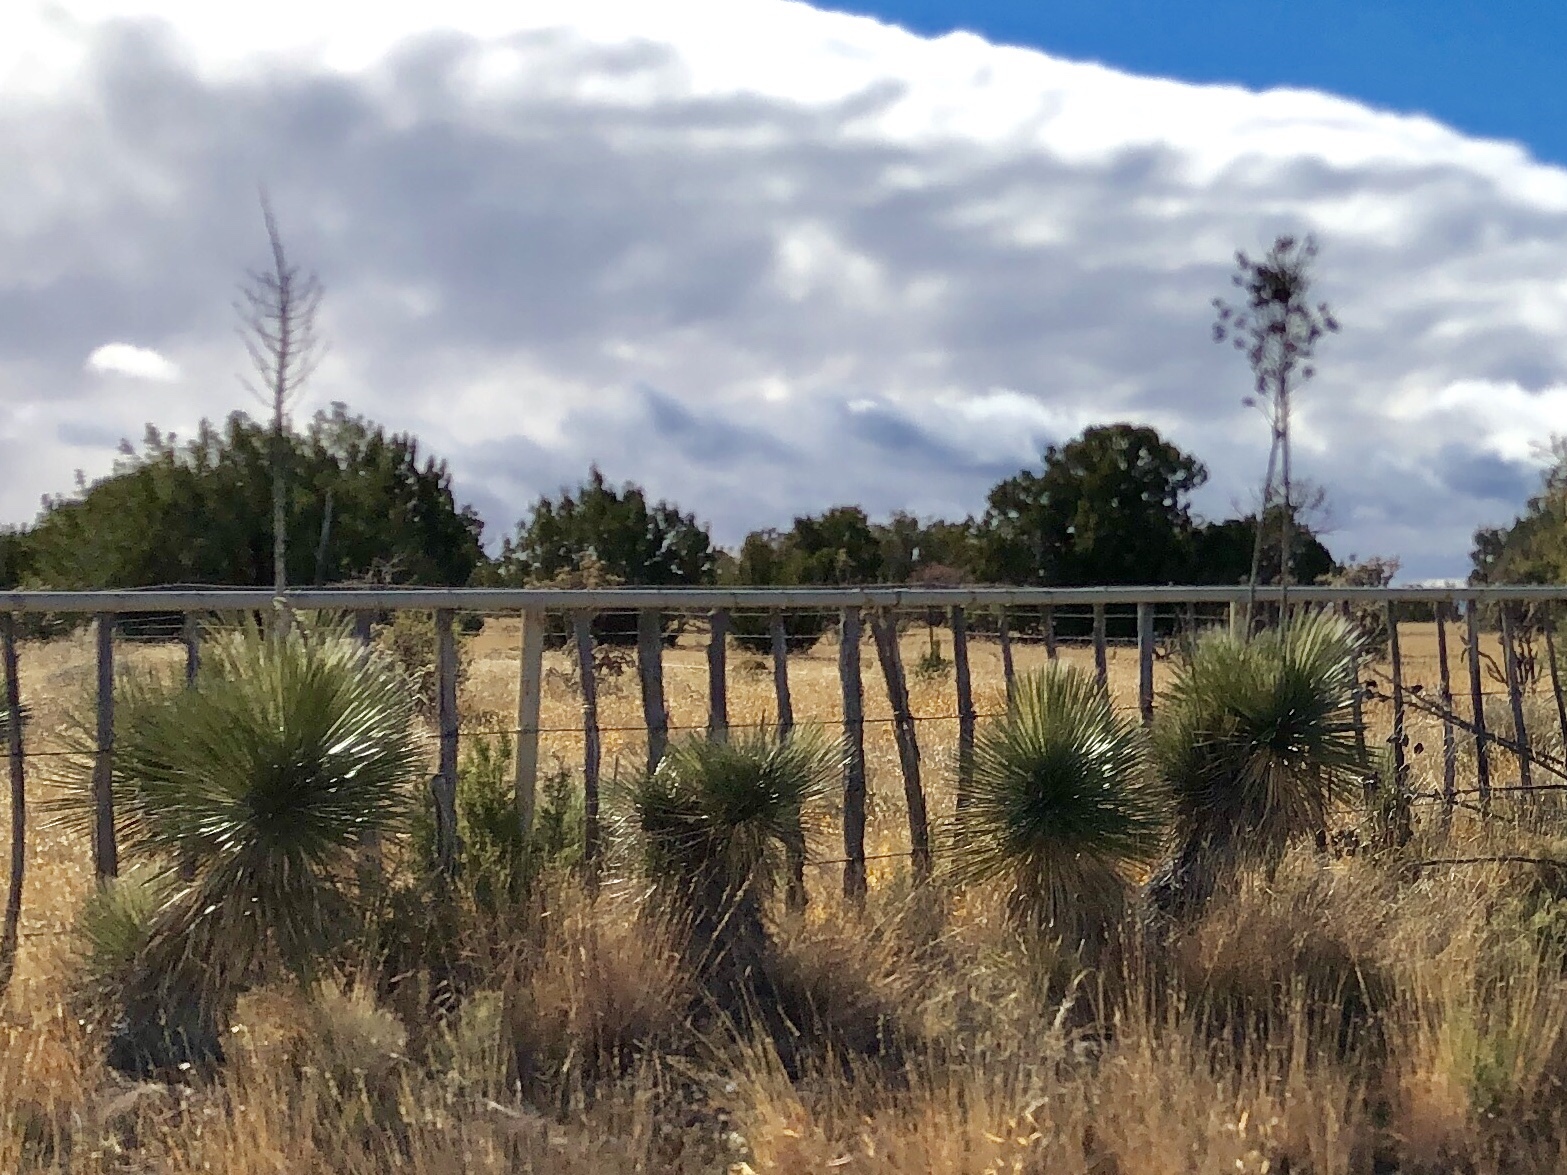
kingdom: Plantae
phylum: Tracheophyta
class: Liliopsida
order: Asparagales
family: Asparagaceae
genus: Yucca
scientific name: Yucca elata
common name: Palmella
